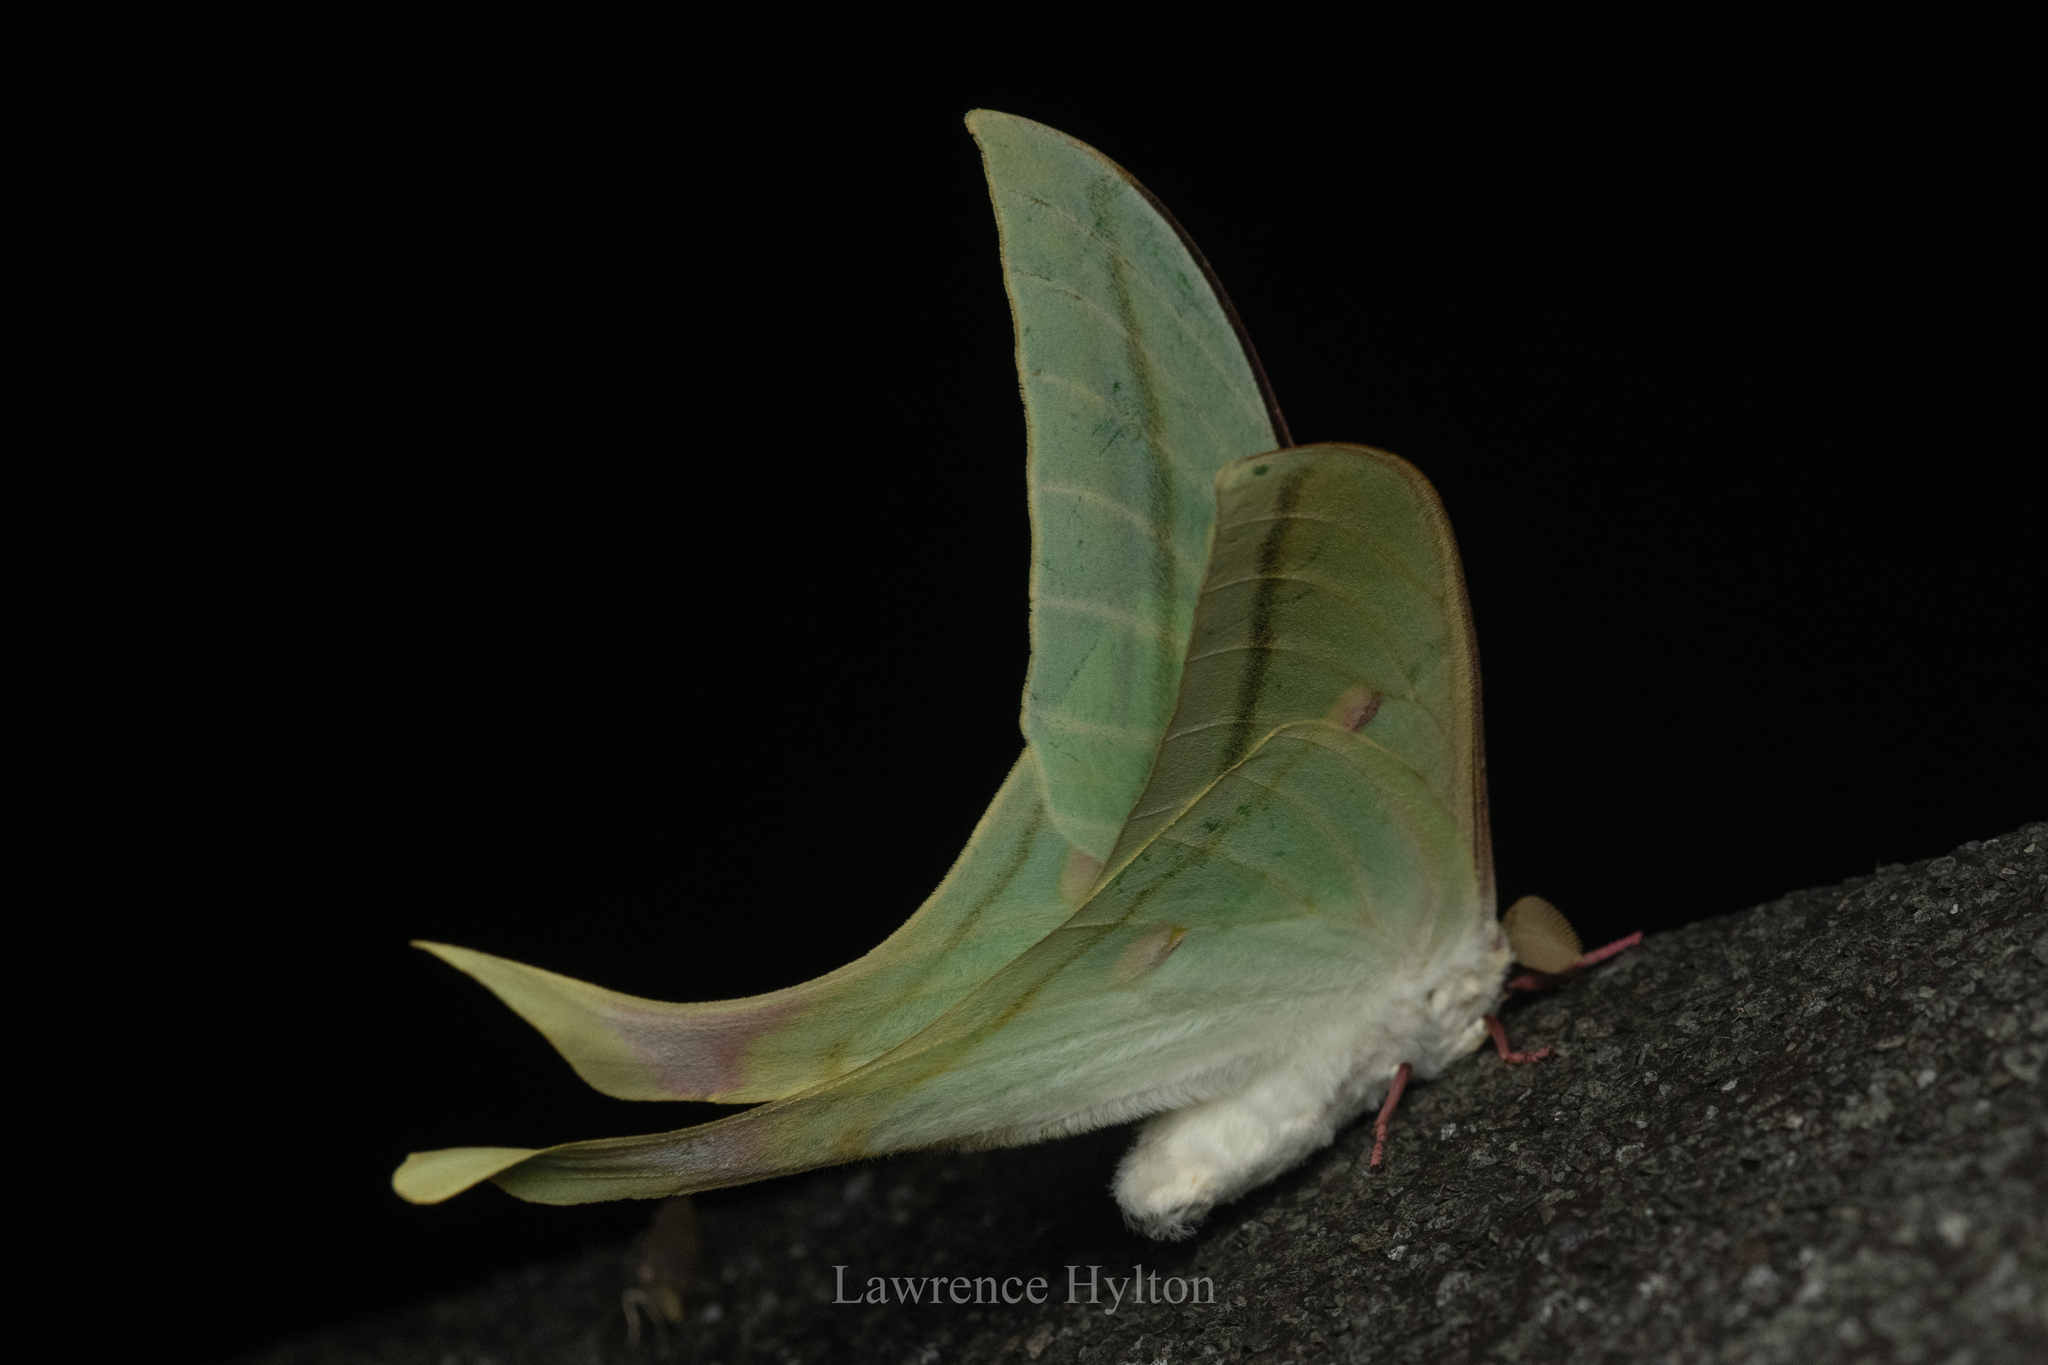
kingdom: Animalia
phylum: Arthropoda
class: Insecta
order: Lepidoptera
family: Saturniidae
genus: Actias
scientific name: Actias ningpoana
